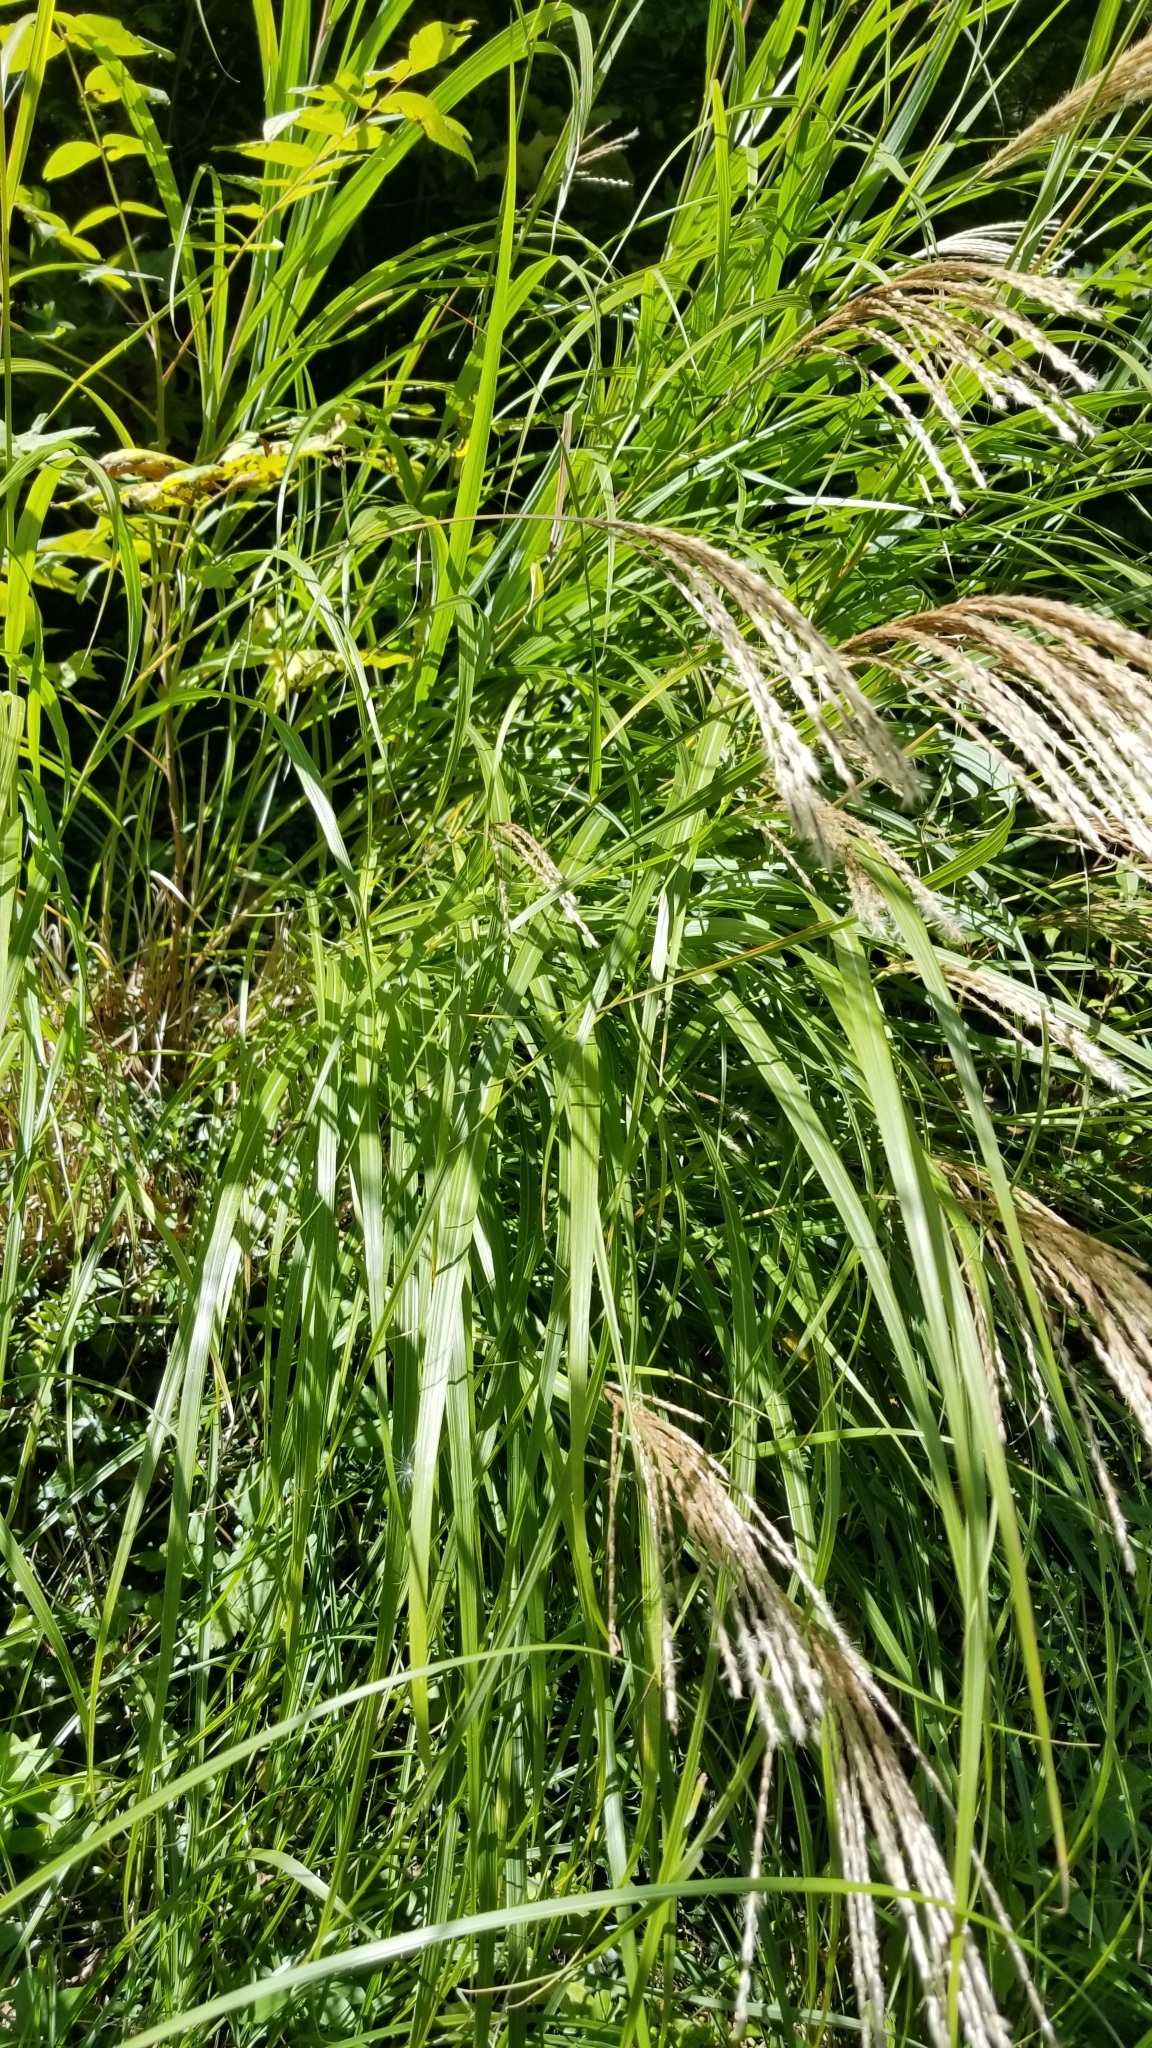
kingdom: Plantae
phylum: Tracheophyta
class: Liliopsida
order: Poales
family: Poaceae
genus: Miscanthus
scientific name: Miscanthus sinensis
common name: Chinese silvergrass
